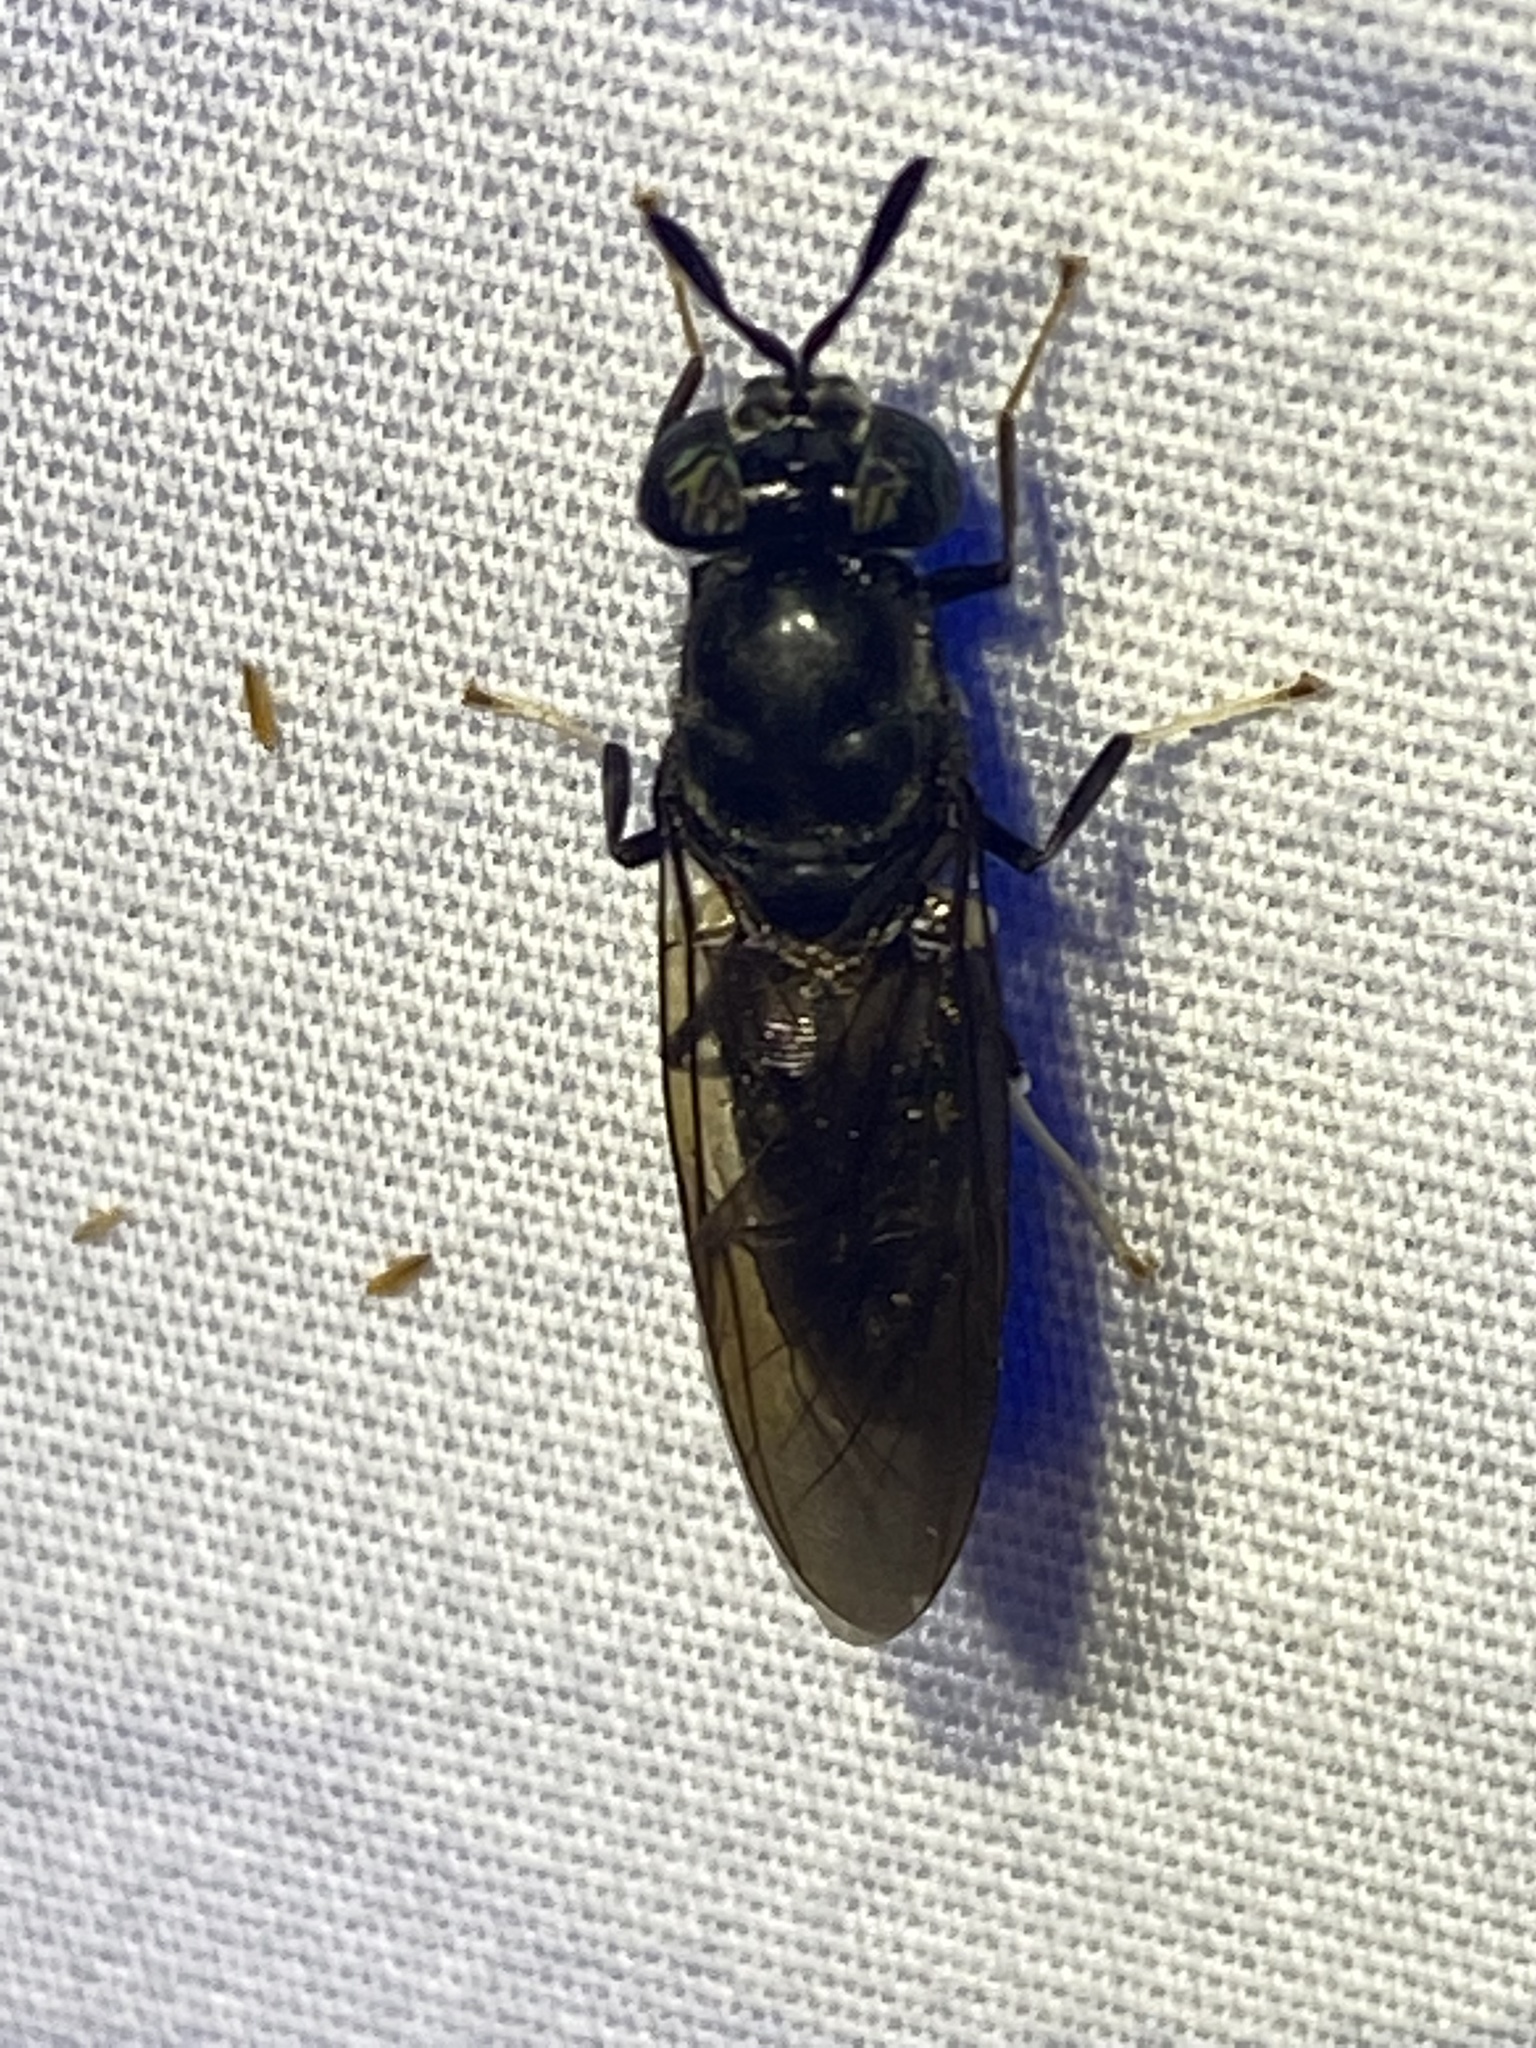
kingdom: Animalia
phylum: Arthropoda
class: Insecta
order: Diptera
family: Stratiomyidae
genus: Hermetia
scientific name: Hermetia illucens
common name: Black soldier fly
